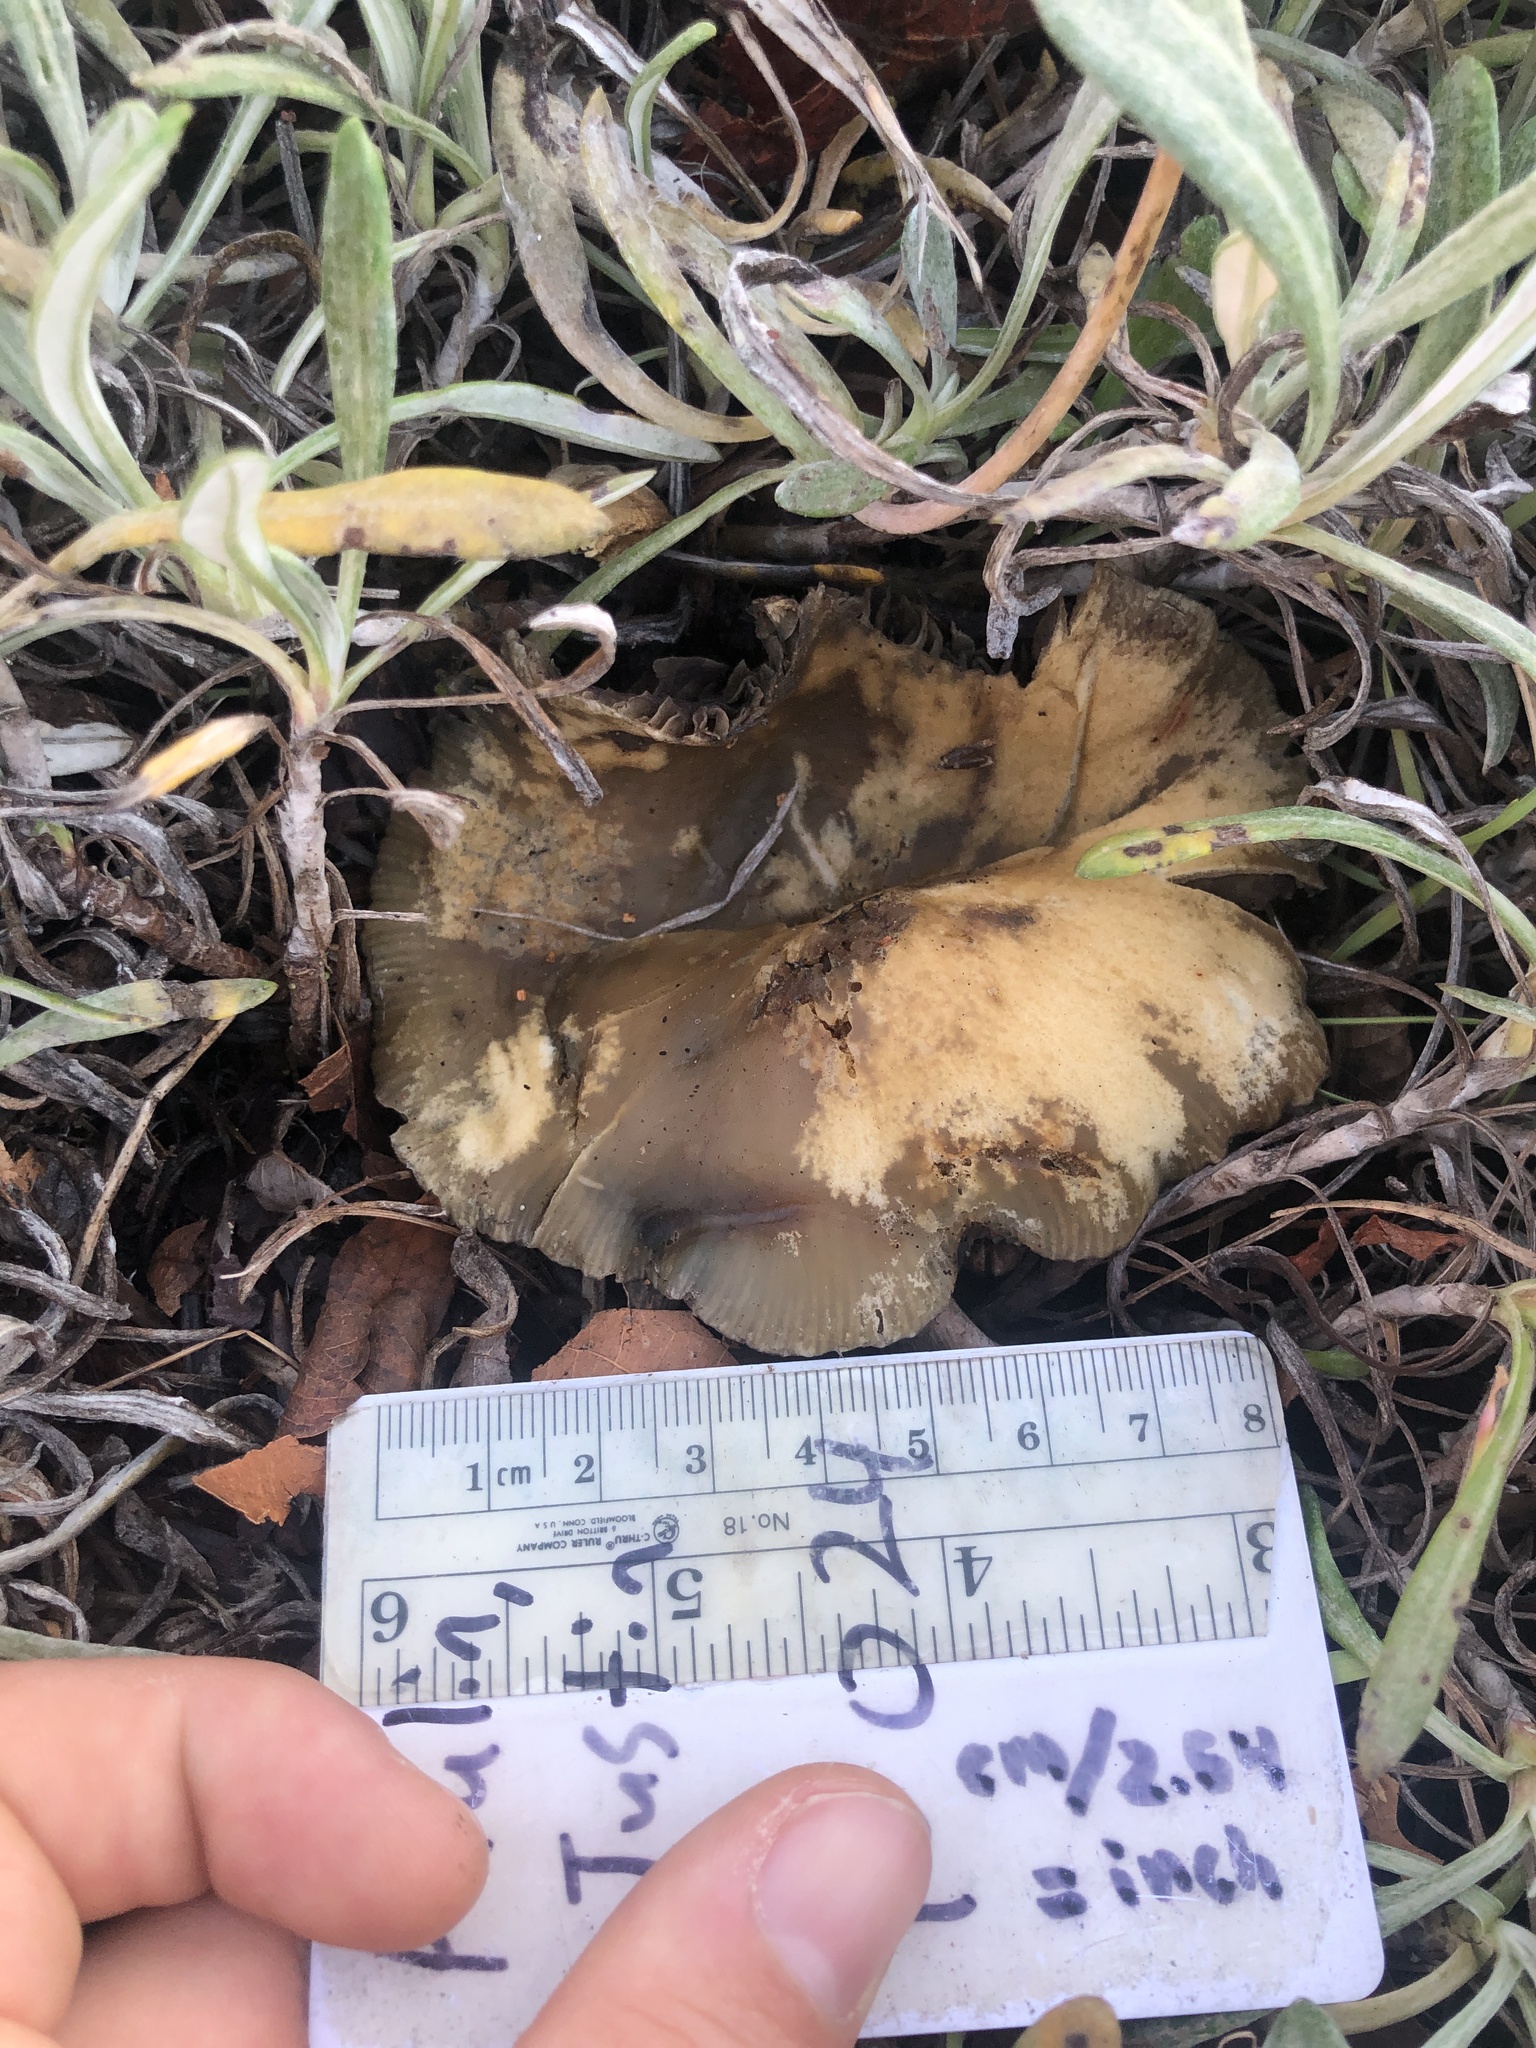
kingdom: Fungi
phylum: Basidiomycota
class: Agaricomycetes
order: Agaricales
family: Hymenogastraceae
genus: Psilocybe
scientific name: Psilocybe allenii
